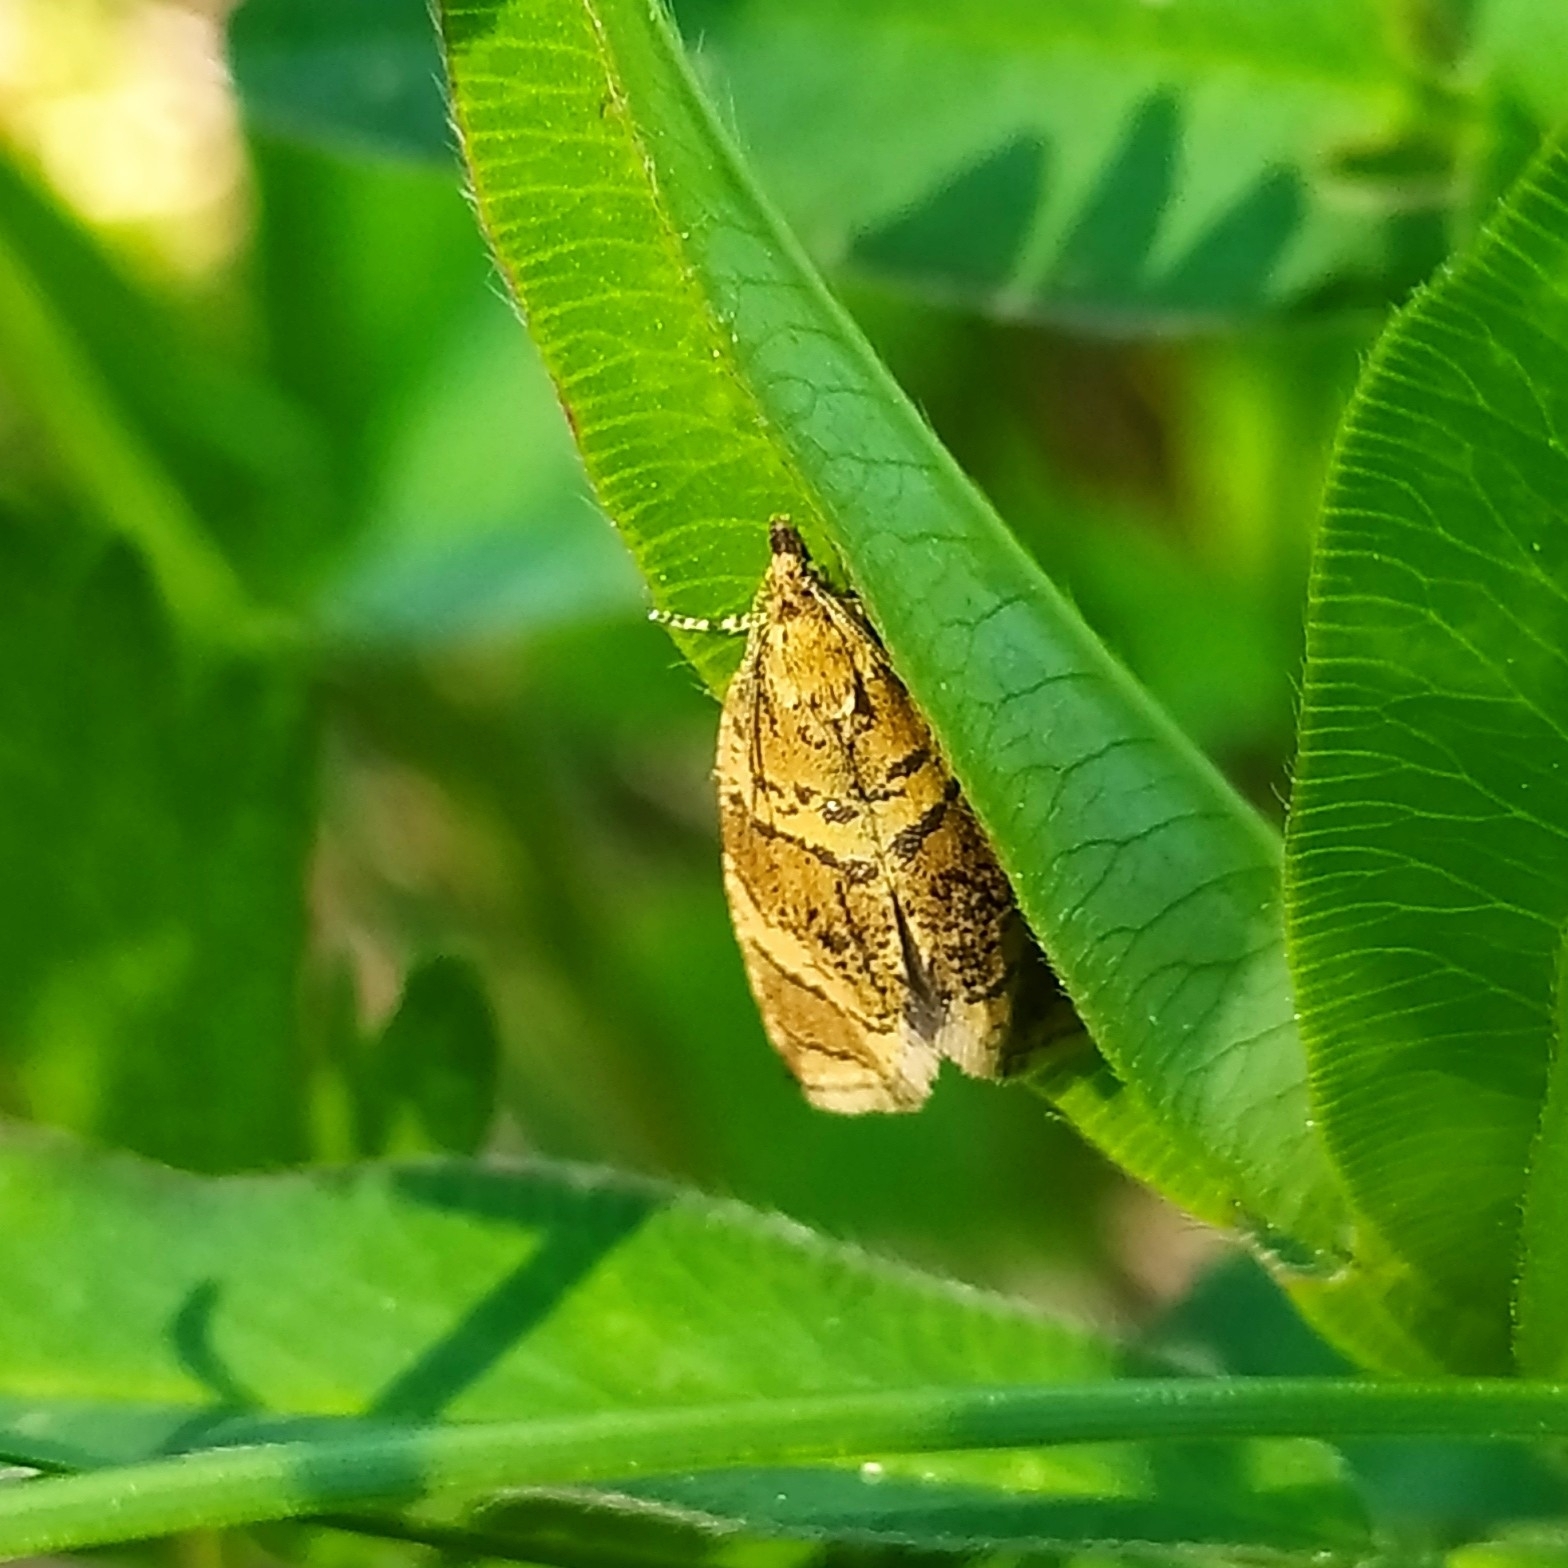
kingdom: Animalia
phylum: Arthropoda
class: Insecta
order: Lepidoptera
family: Tortricidae
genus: Olethreutes
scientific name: Olethreutes metallicana
